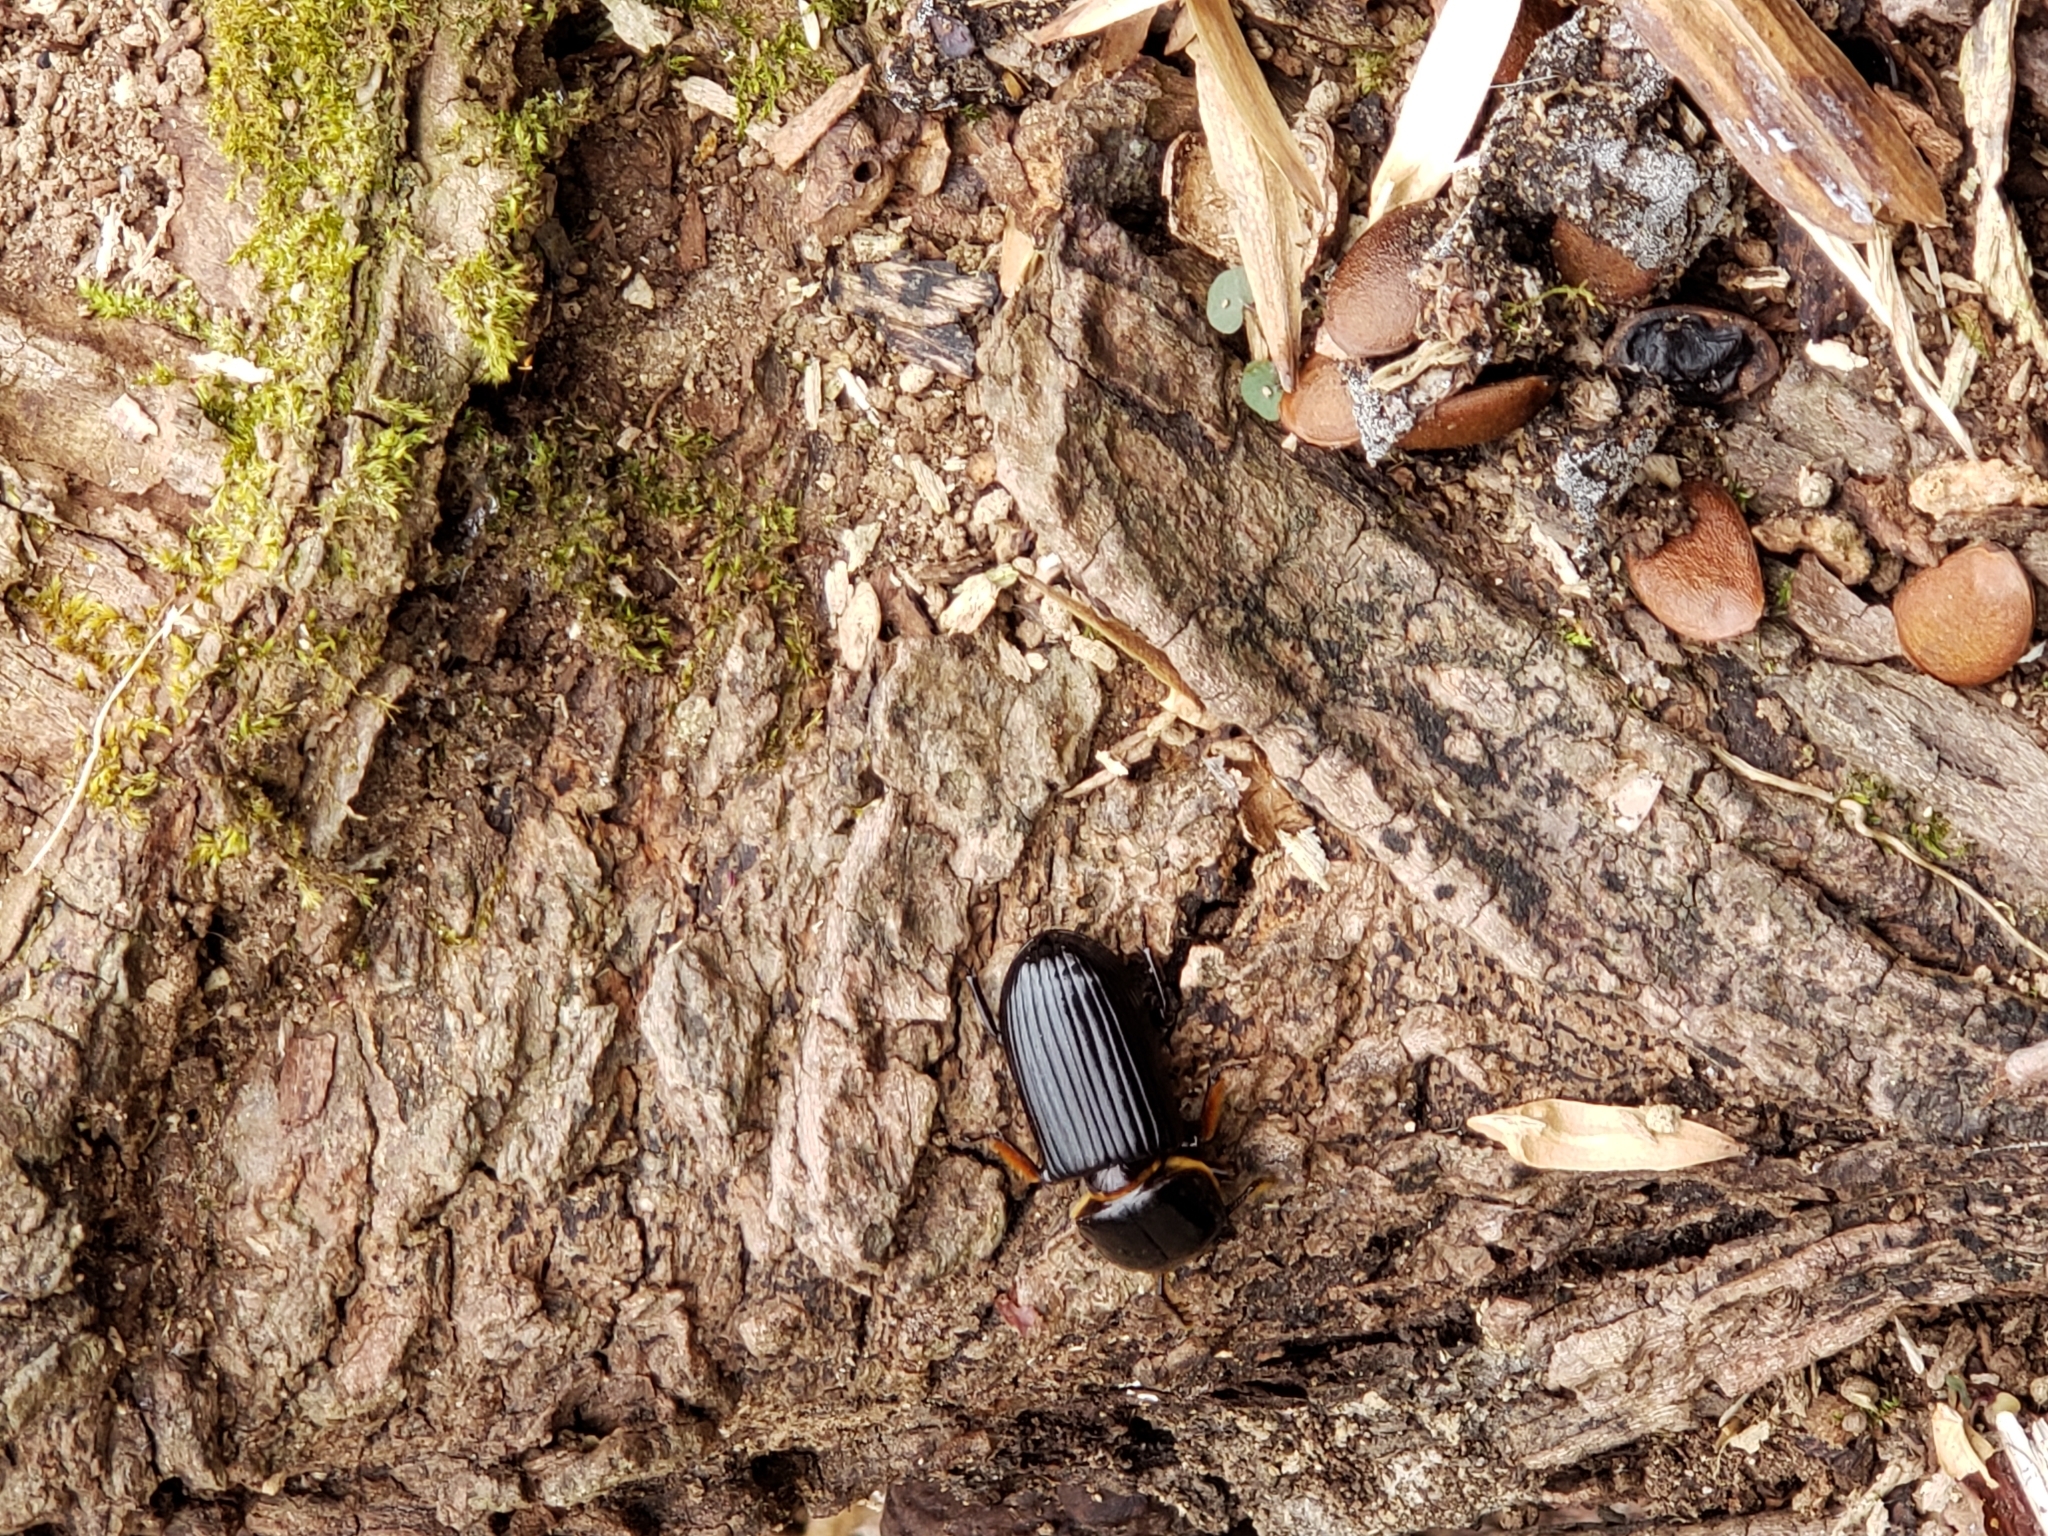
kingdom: Animalia
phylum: Arthropoda
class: Insecta
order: Coleoptera
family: Passalidae
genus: Odontotaenius
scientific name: Odontotaenius disjunctus
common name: Patent leather beetle
